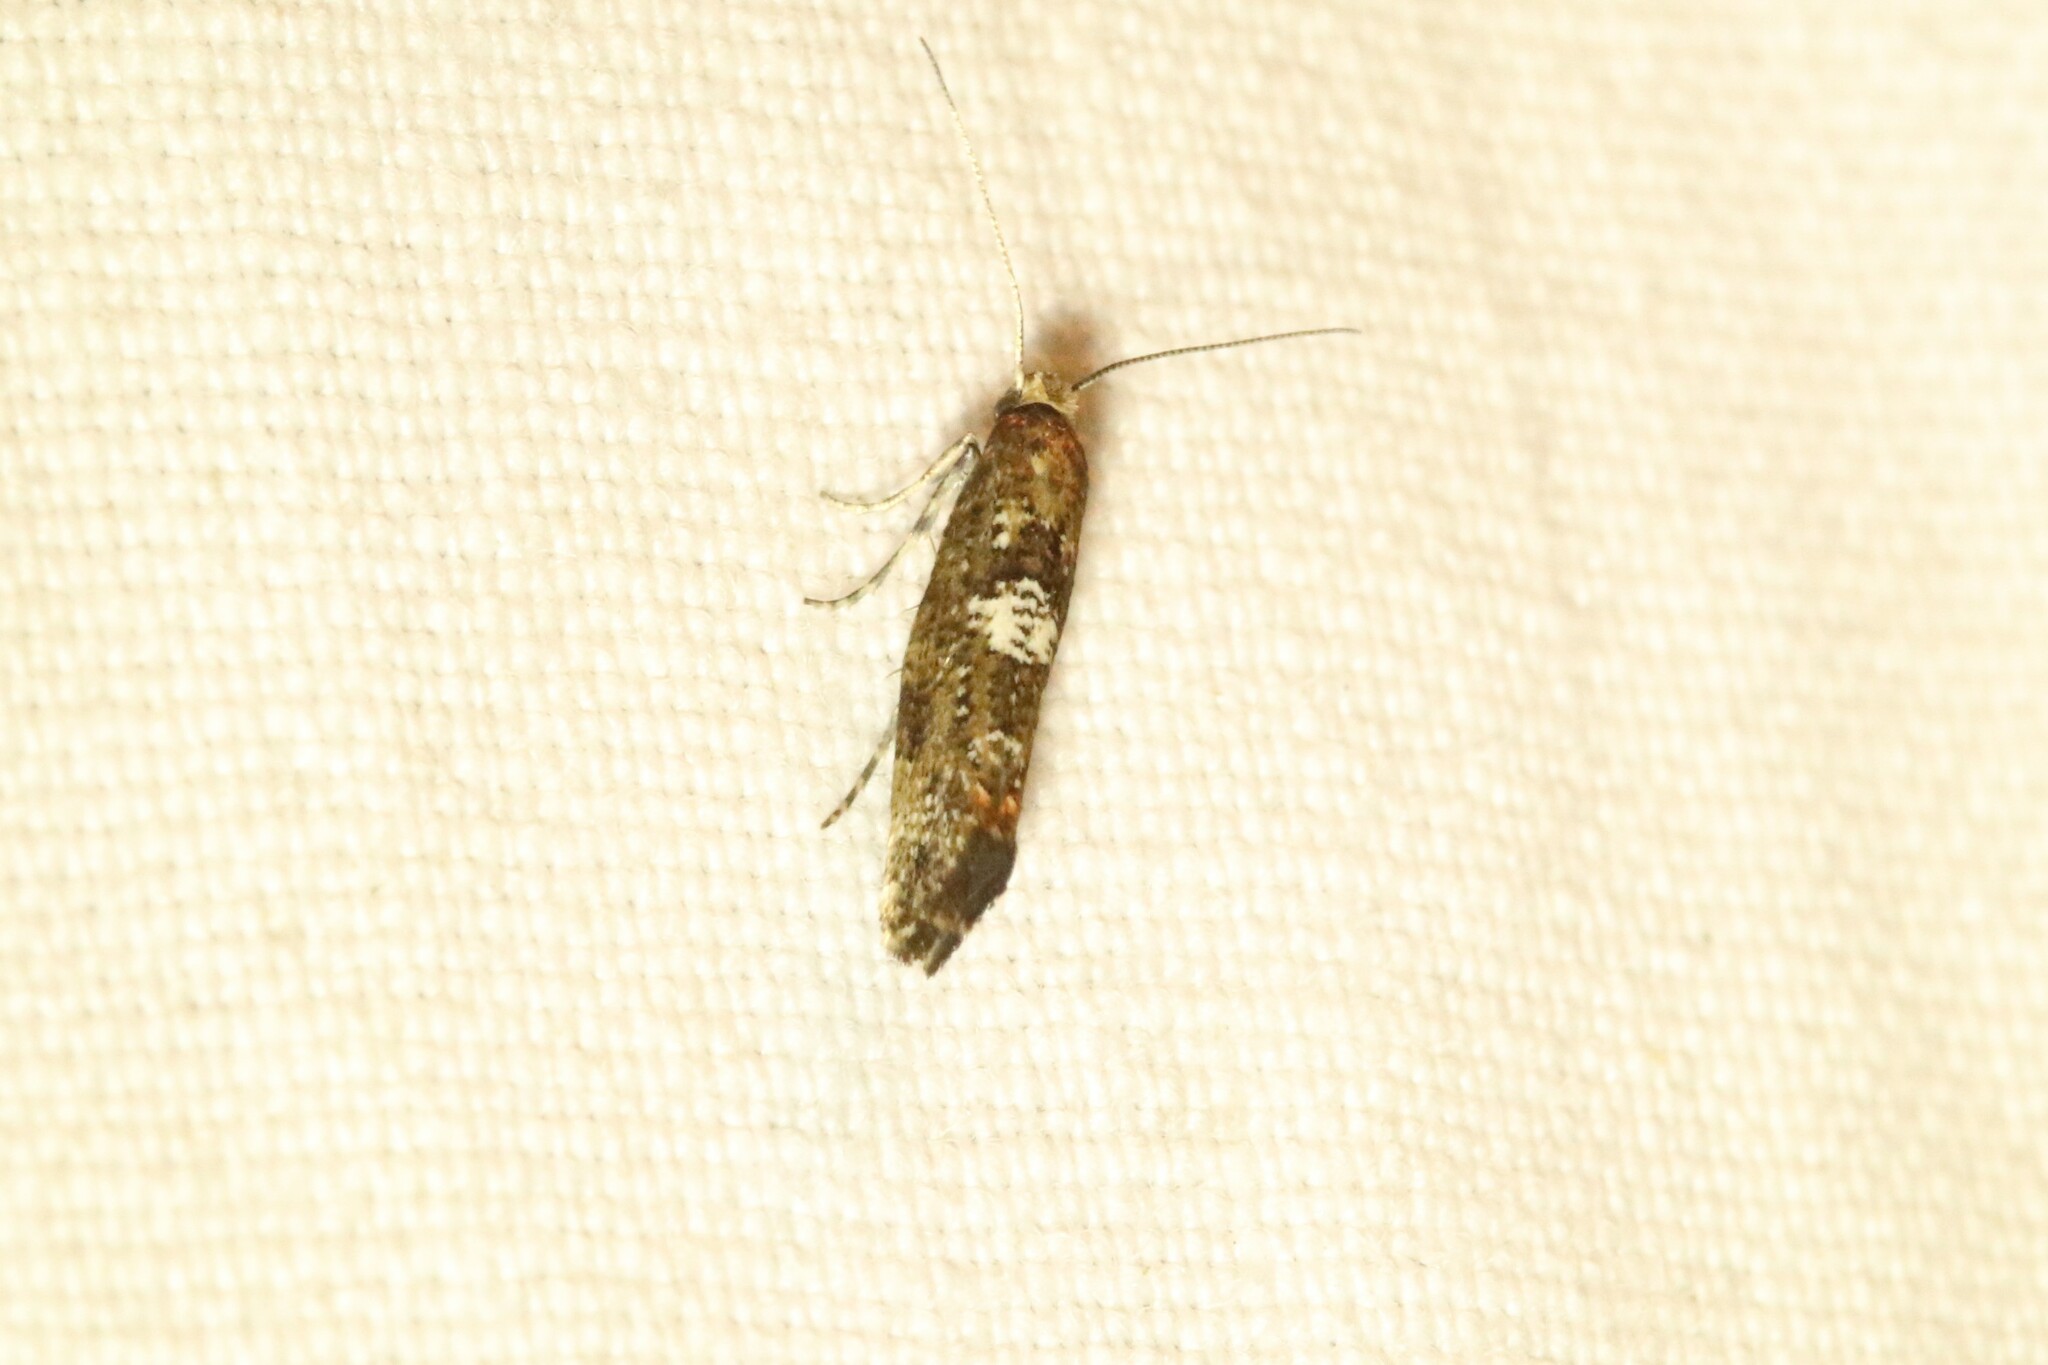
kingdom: Animalia
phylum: Arthropoda
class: Insecta
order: Lepidoptera
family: Tortricidae
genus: Eucosma
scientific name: Eucosma parmatana
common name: Aster eucosma moth
